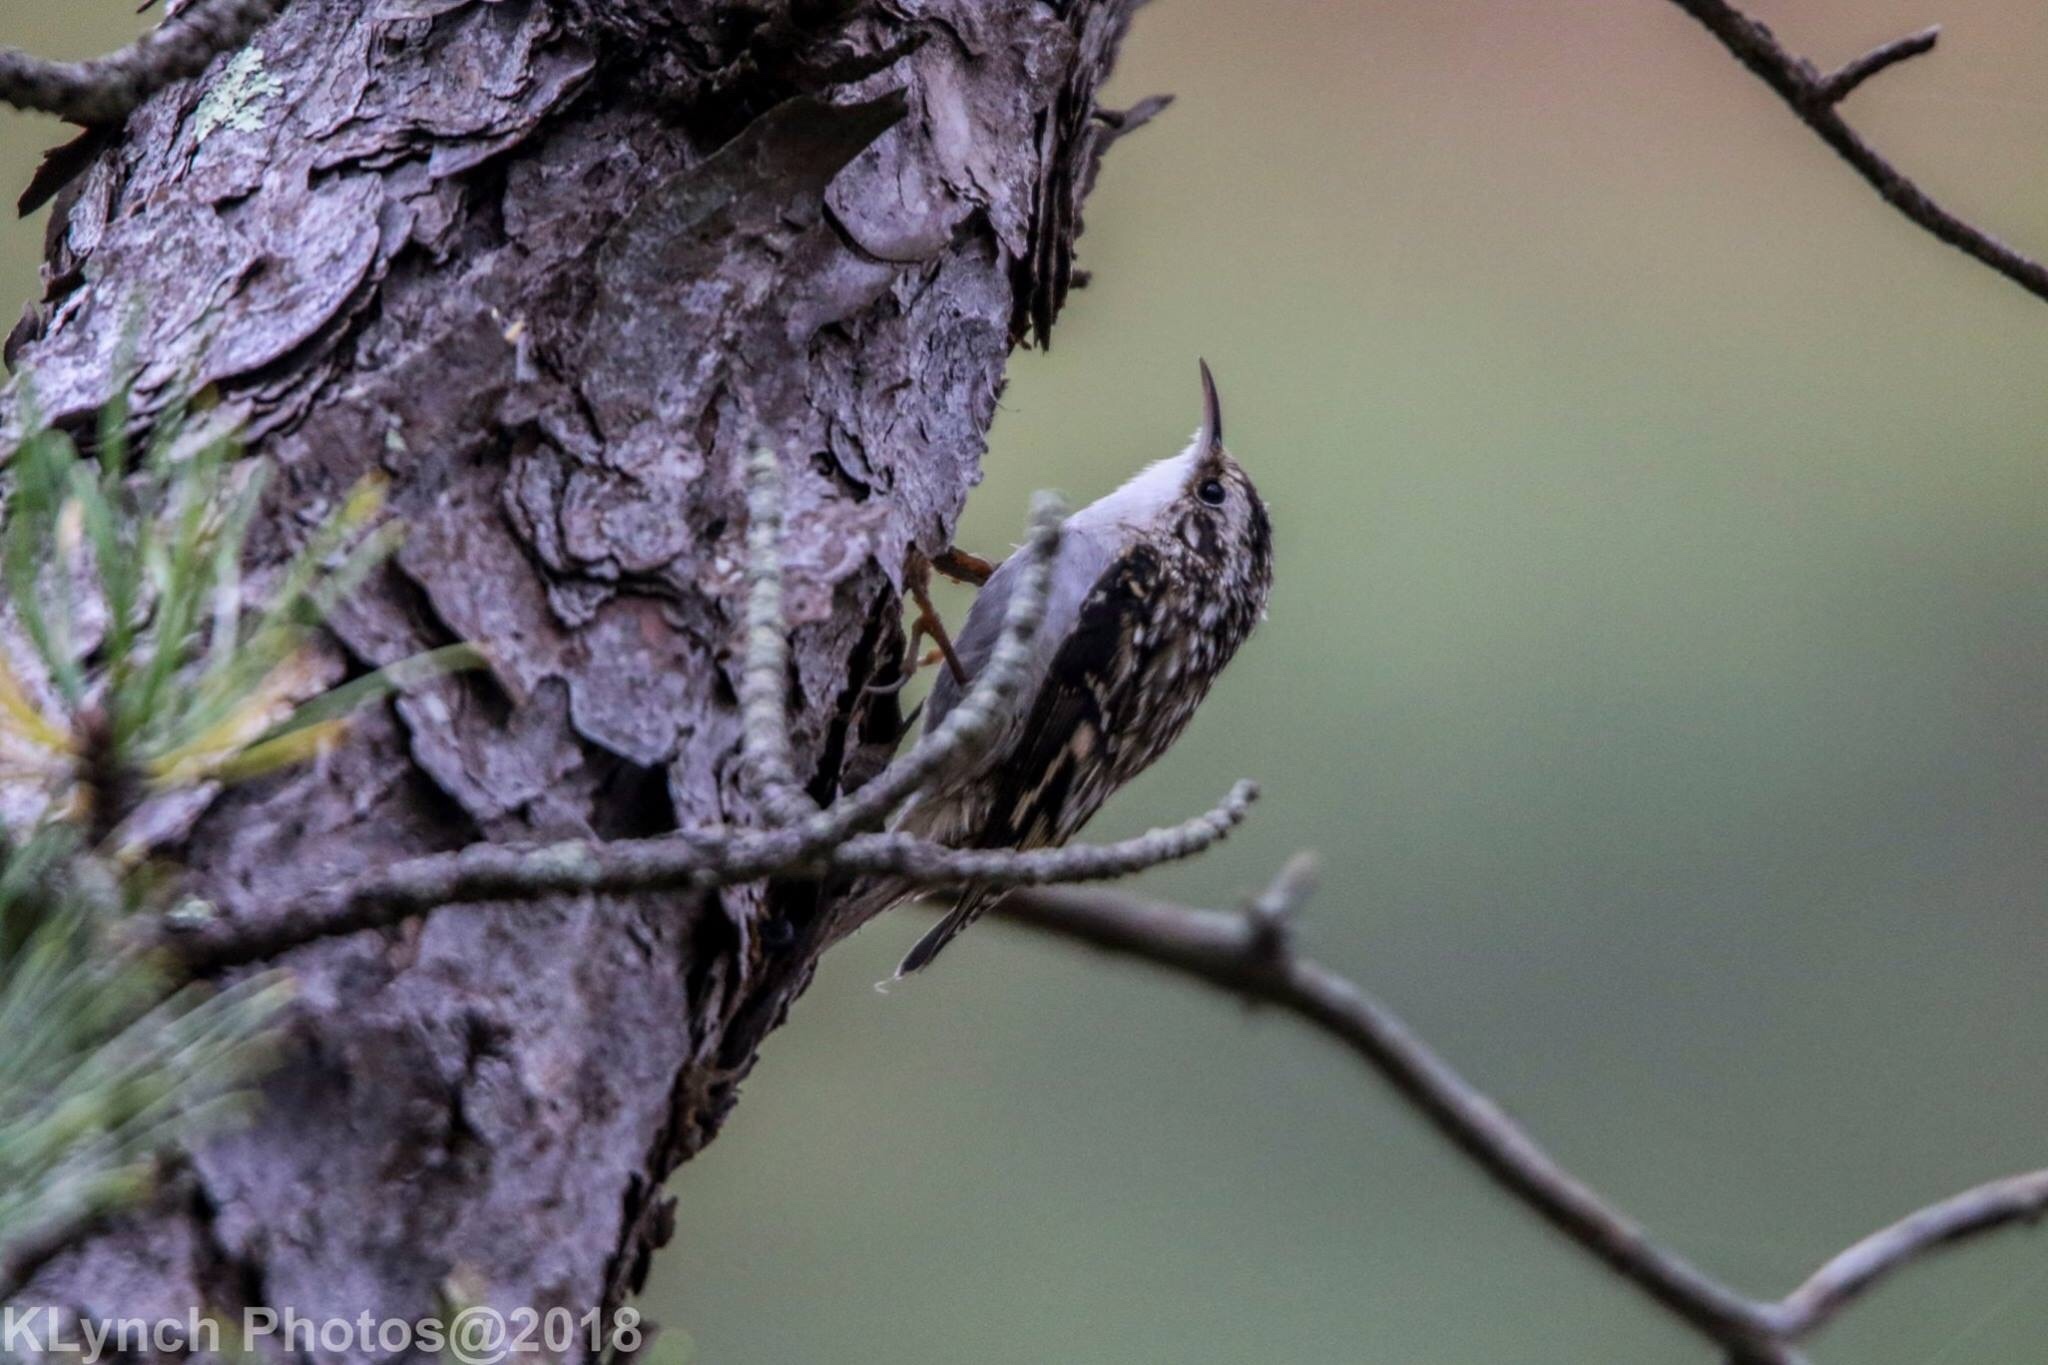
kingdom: Animalia
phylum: Chordata
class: Aves
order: Passeriformes
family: Certhiidae
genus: Certhia
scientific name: Certhia americana
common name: Brown creeper
